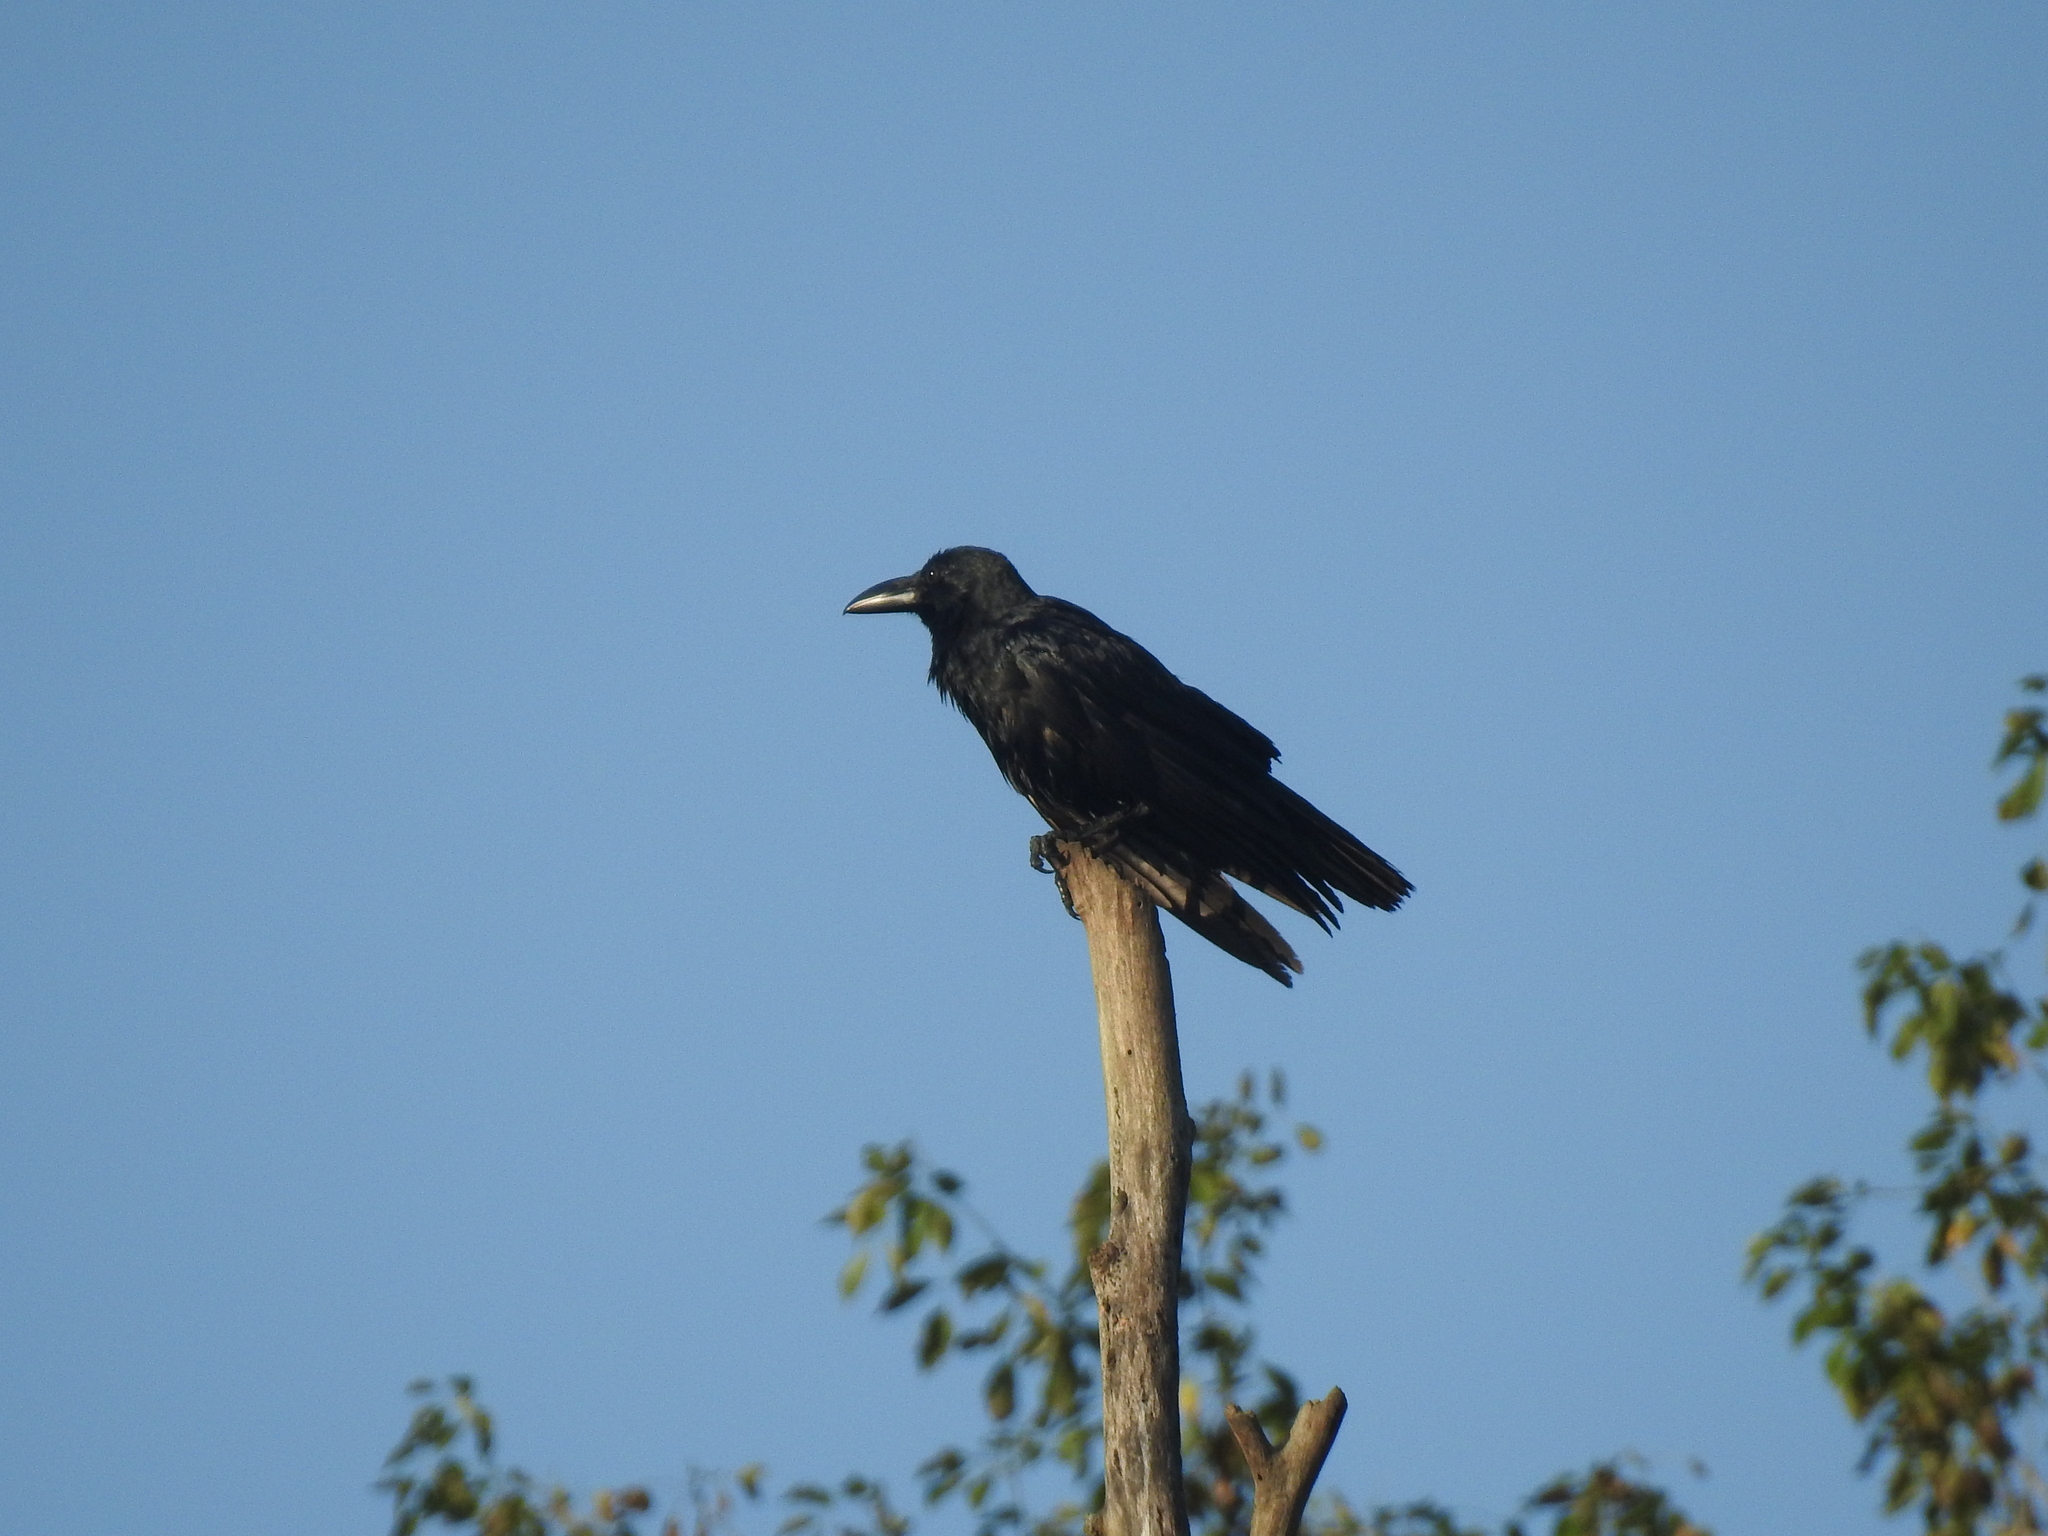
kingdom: Animalia
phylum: Chordata
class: Aves
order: Passeriformes
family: Corvidae
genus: Corvus
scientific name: Corvus macrorhynchos
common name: Large-billed crow
